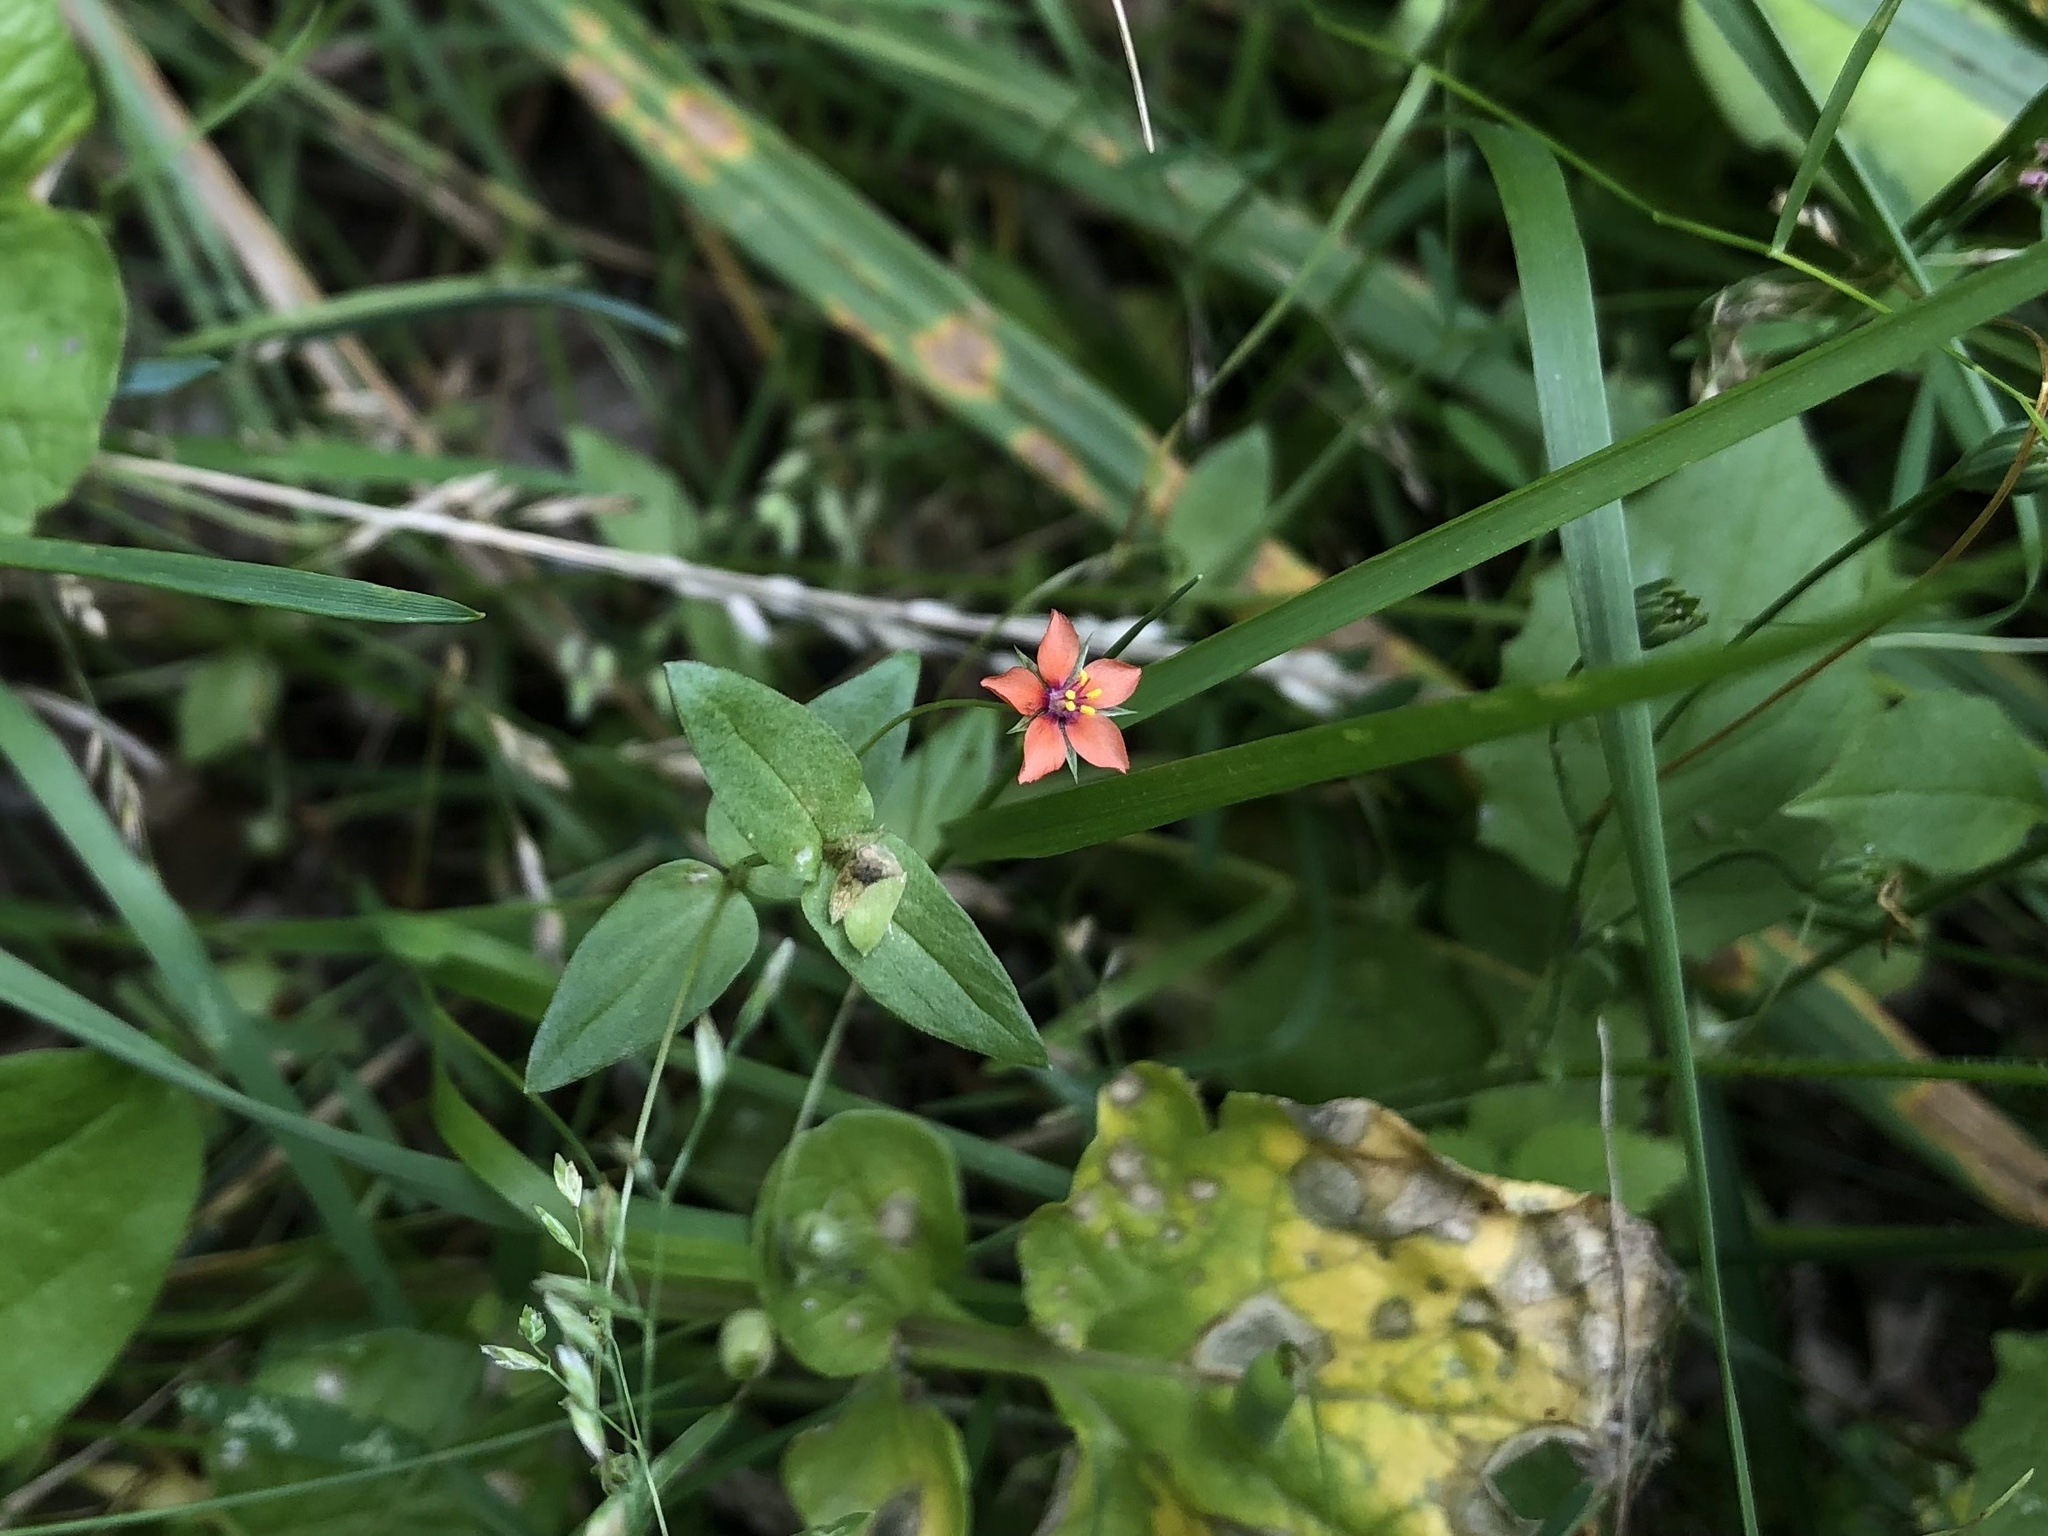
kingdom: Plantae
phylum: Tracheophyta
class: Magnoliopsida
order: Ericales
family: Primulaceae
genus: Lysimachia
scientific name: Lysimachia arvensis
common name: Scarlet pimpernel
